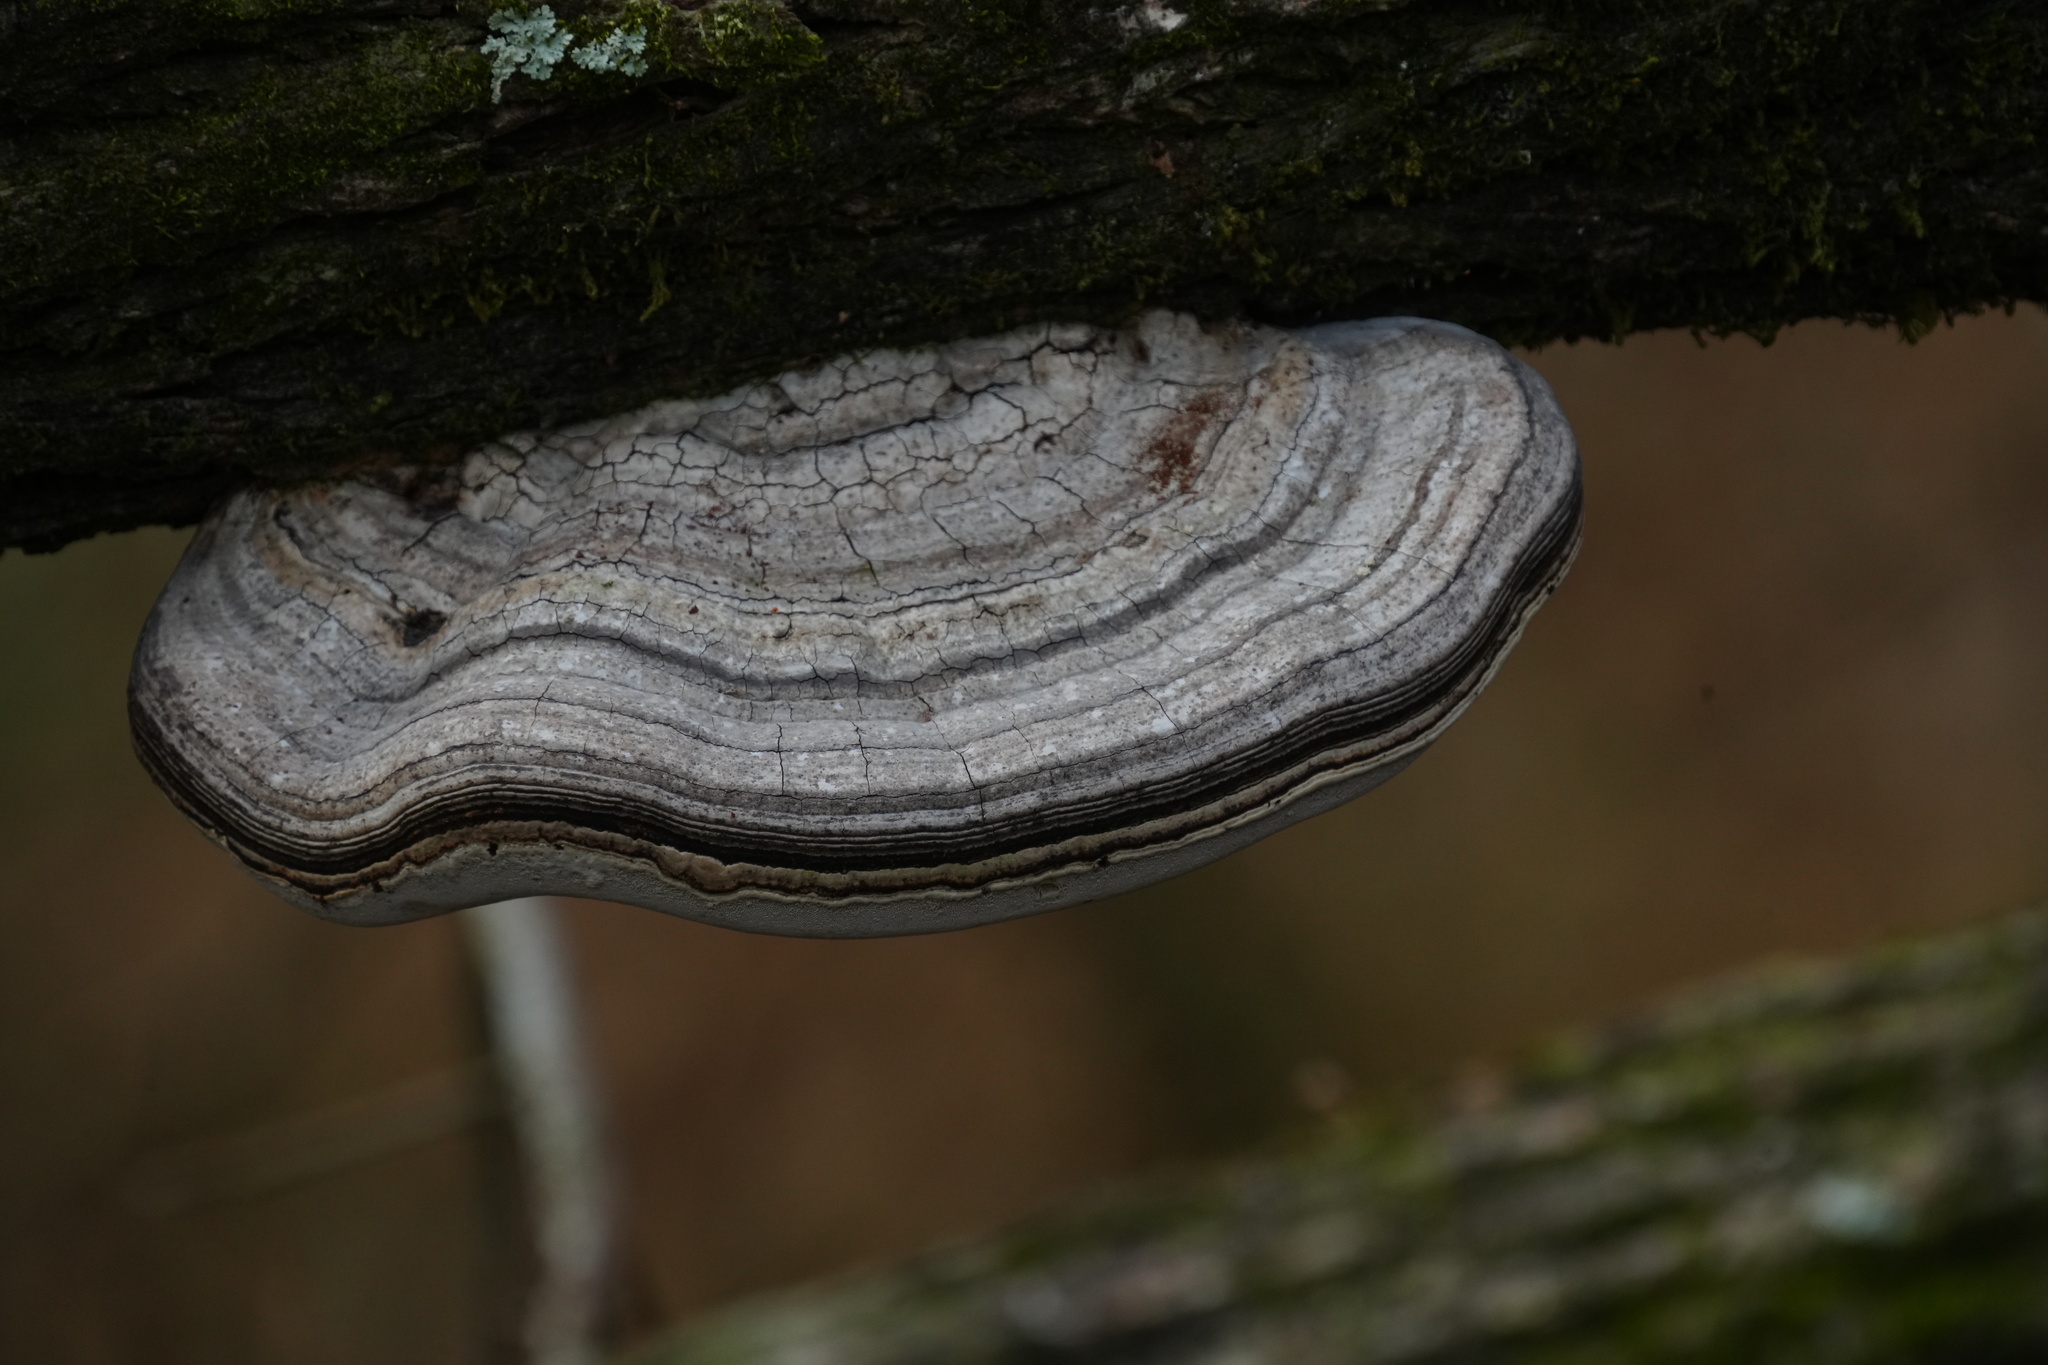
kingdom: Fungi
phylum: Basidiomycota
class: Agaricomycetes
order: Polyporales
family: Polyporaceae
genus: Fomes
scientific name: Fomes fasciatus
